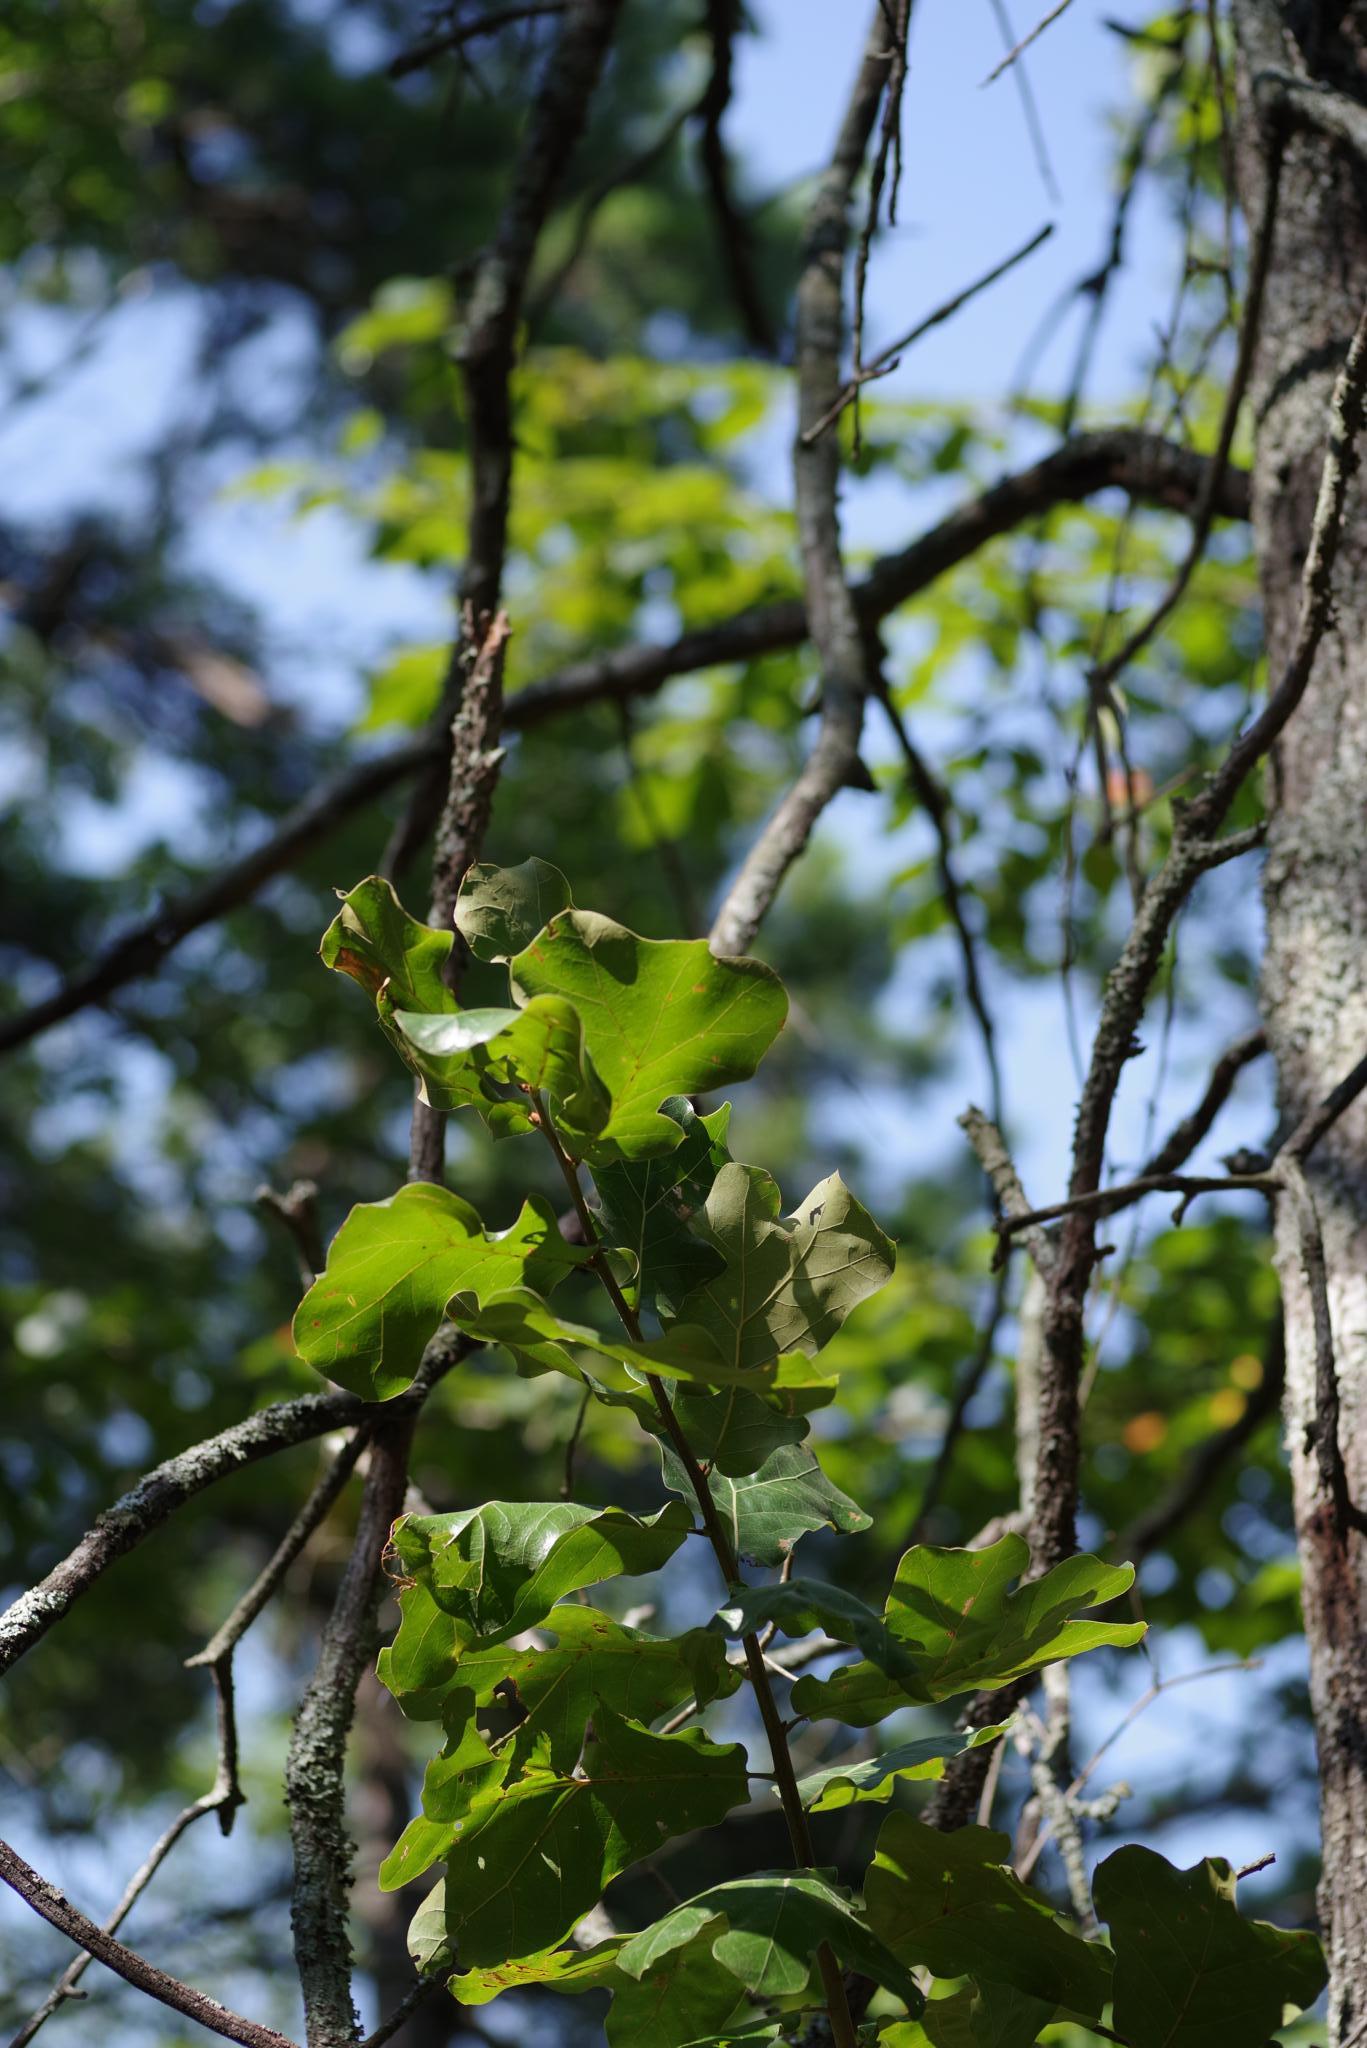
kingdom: Plantae
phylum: Tracheophyta
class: Magnoliopsida
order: Fagales
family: Fagaceae
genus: Quercus
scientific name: Quercus marilandica
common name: Blackjack oak
